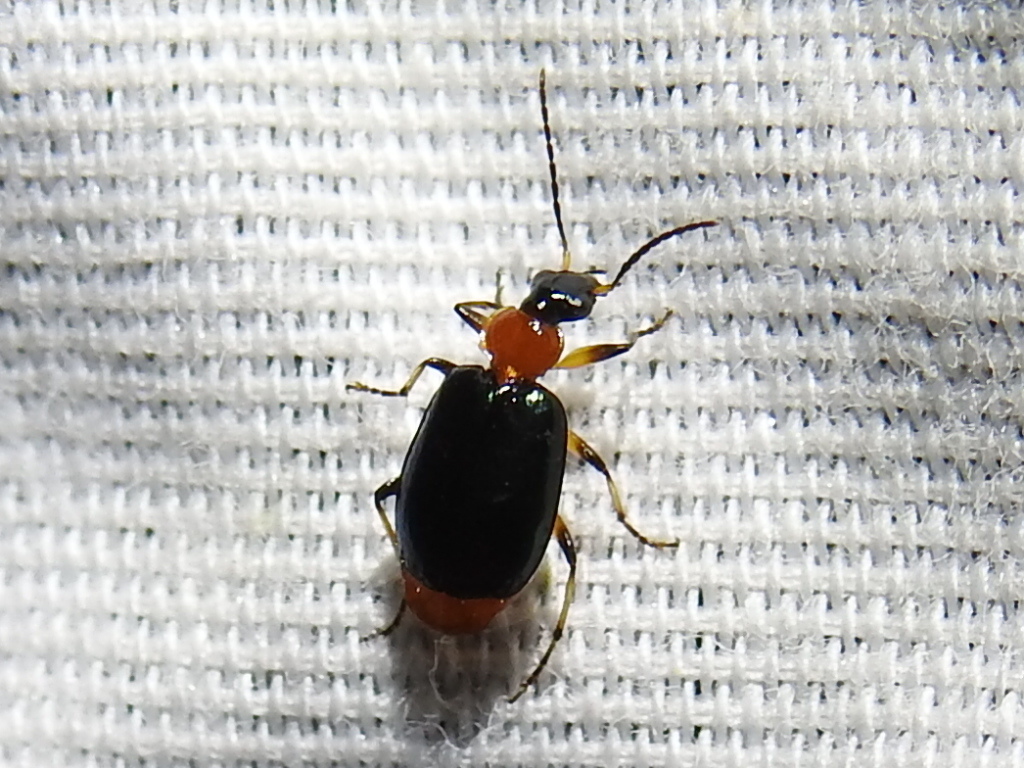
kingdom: Animalia
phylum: Arthropoda
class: Insecta
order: Coleoptera
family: Carabidae
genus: Lebia
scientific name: Lebia viridipennis
